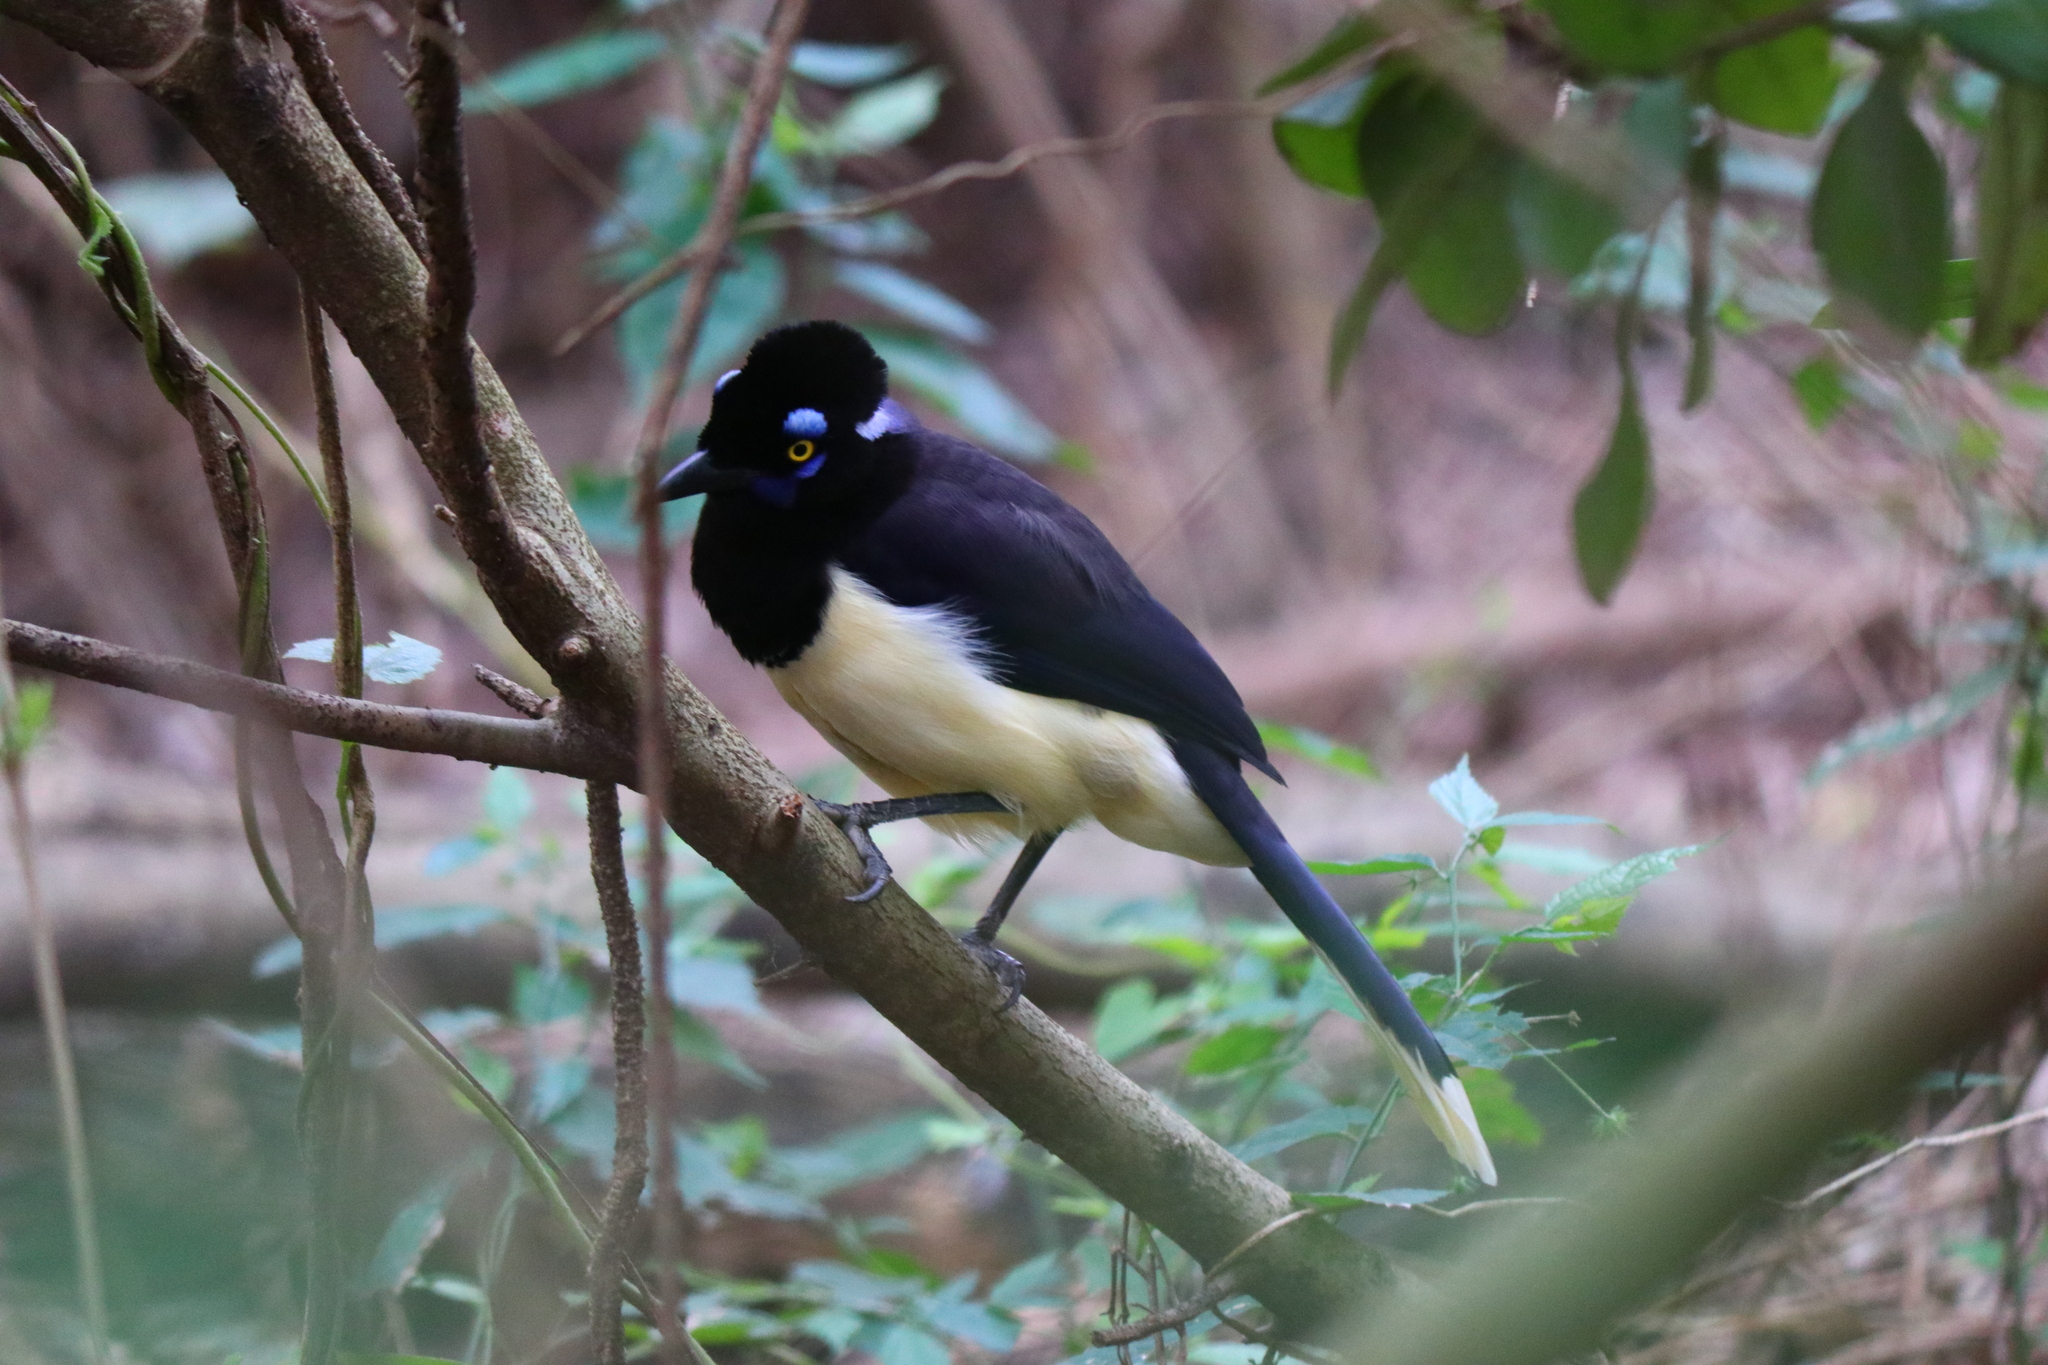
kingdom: Animalia
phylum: Chordata
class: Aves
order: Passeriformes
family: Corvidae
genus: Cyanocorax
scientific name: Cyanocorax chrysops
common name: Plush-crested jay
